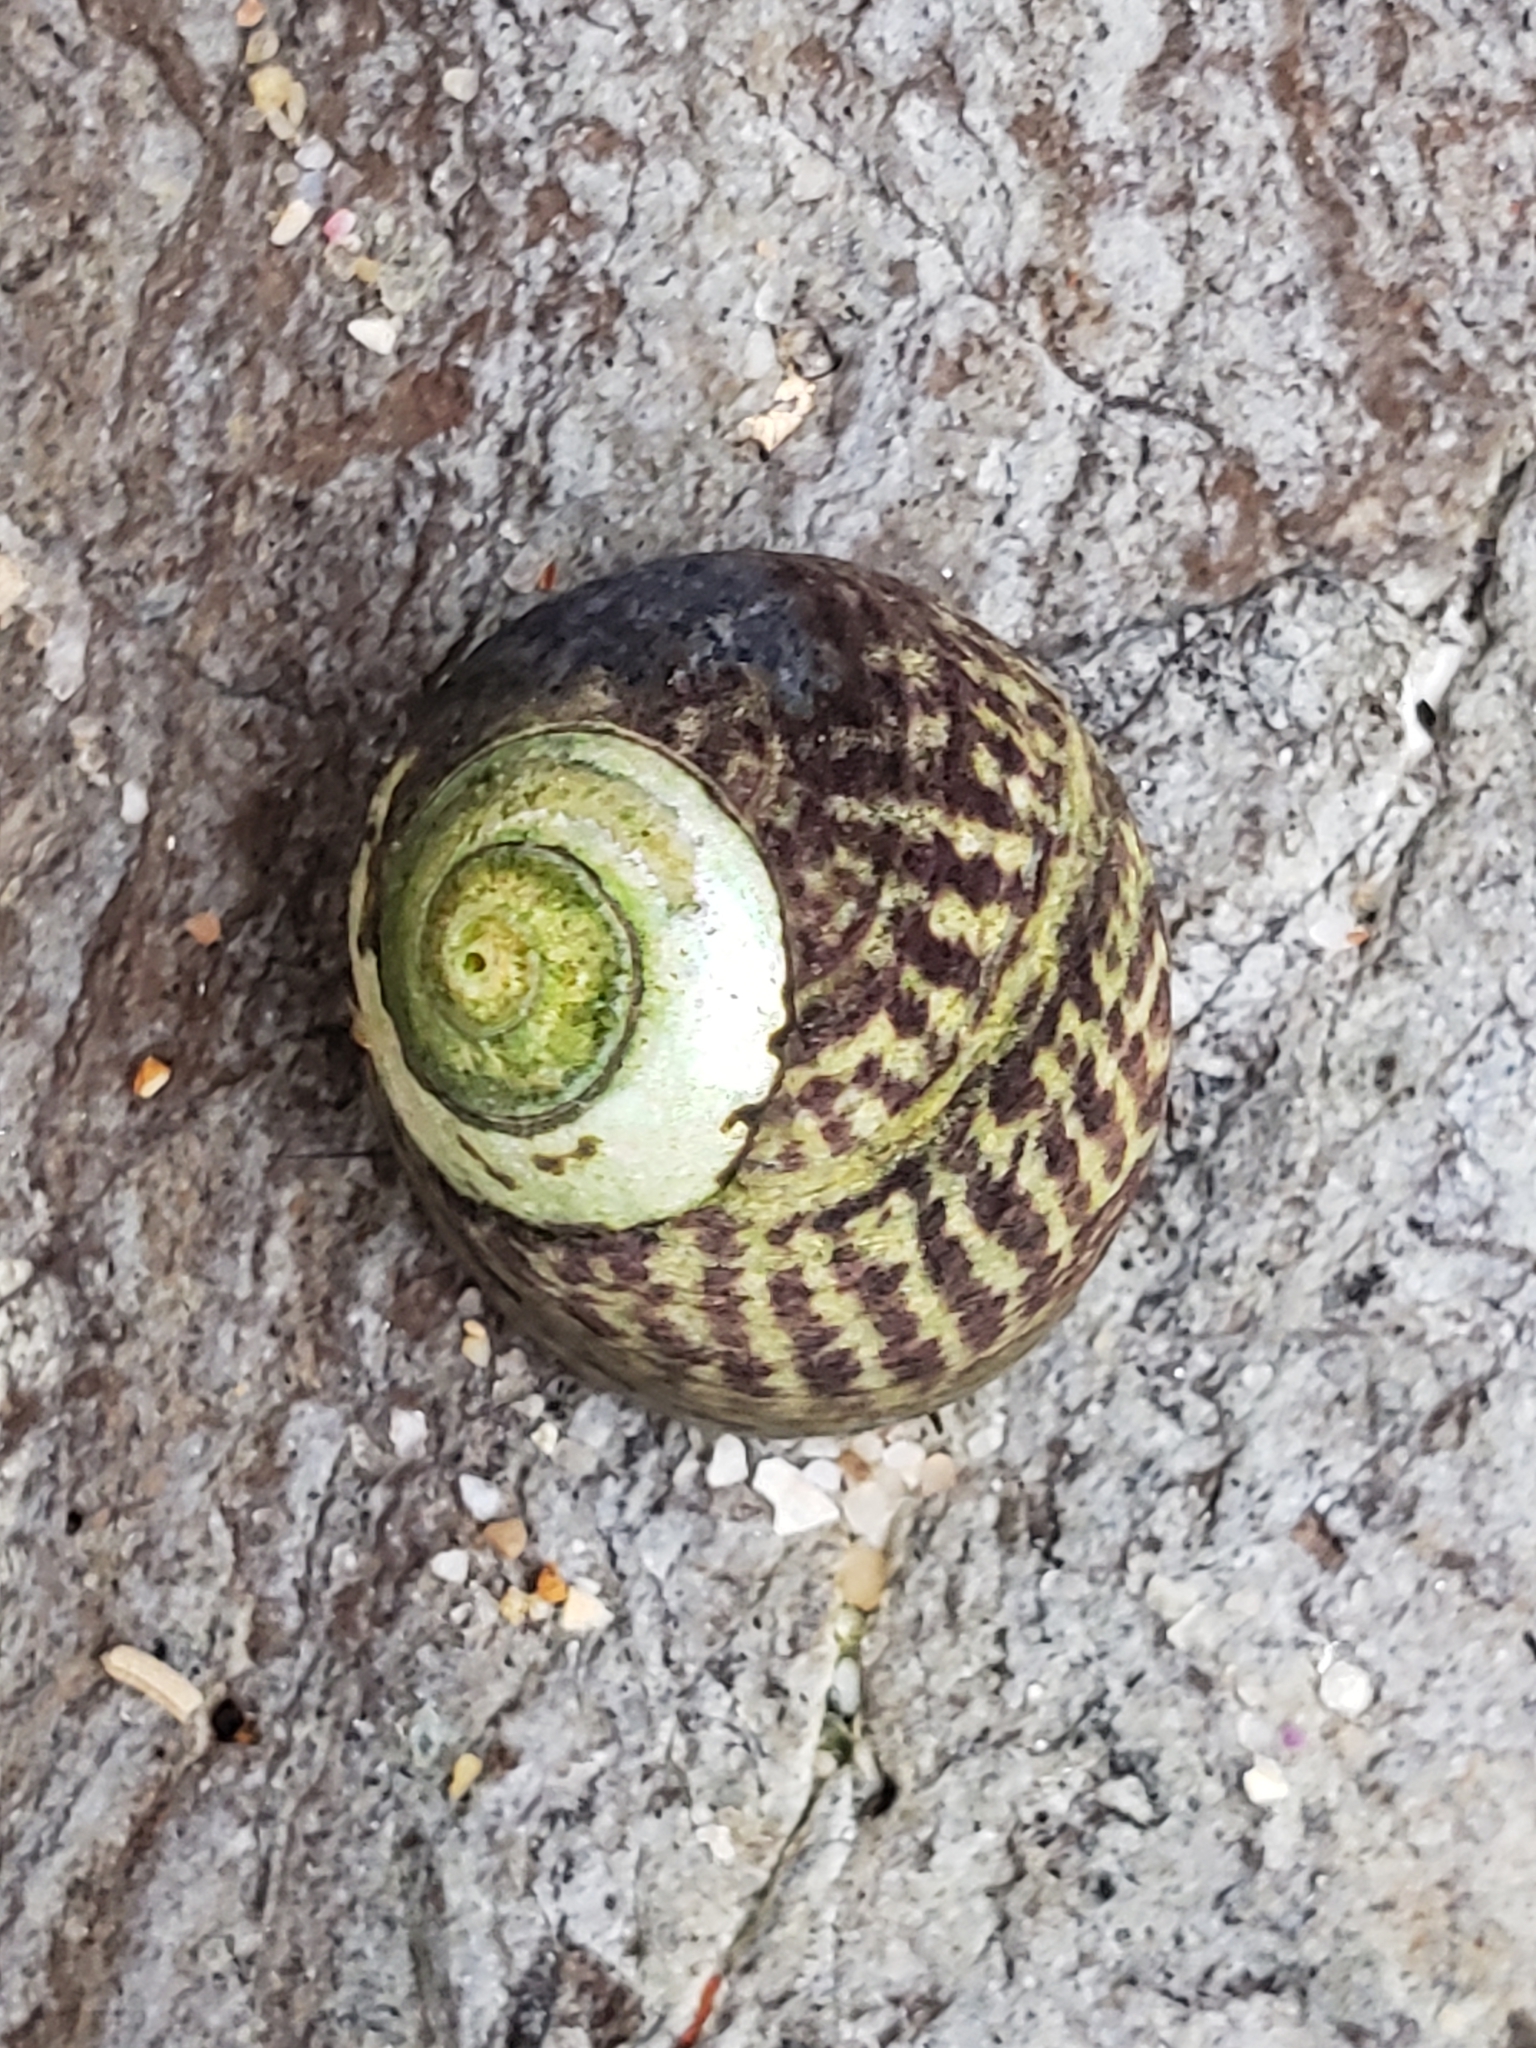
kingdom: Animalia
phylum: Mollusca
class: Gastropoda
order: Trochida
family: Tegulidae
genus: Tegula
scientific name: Tegula gallina
